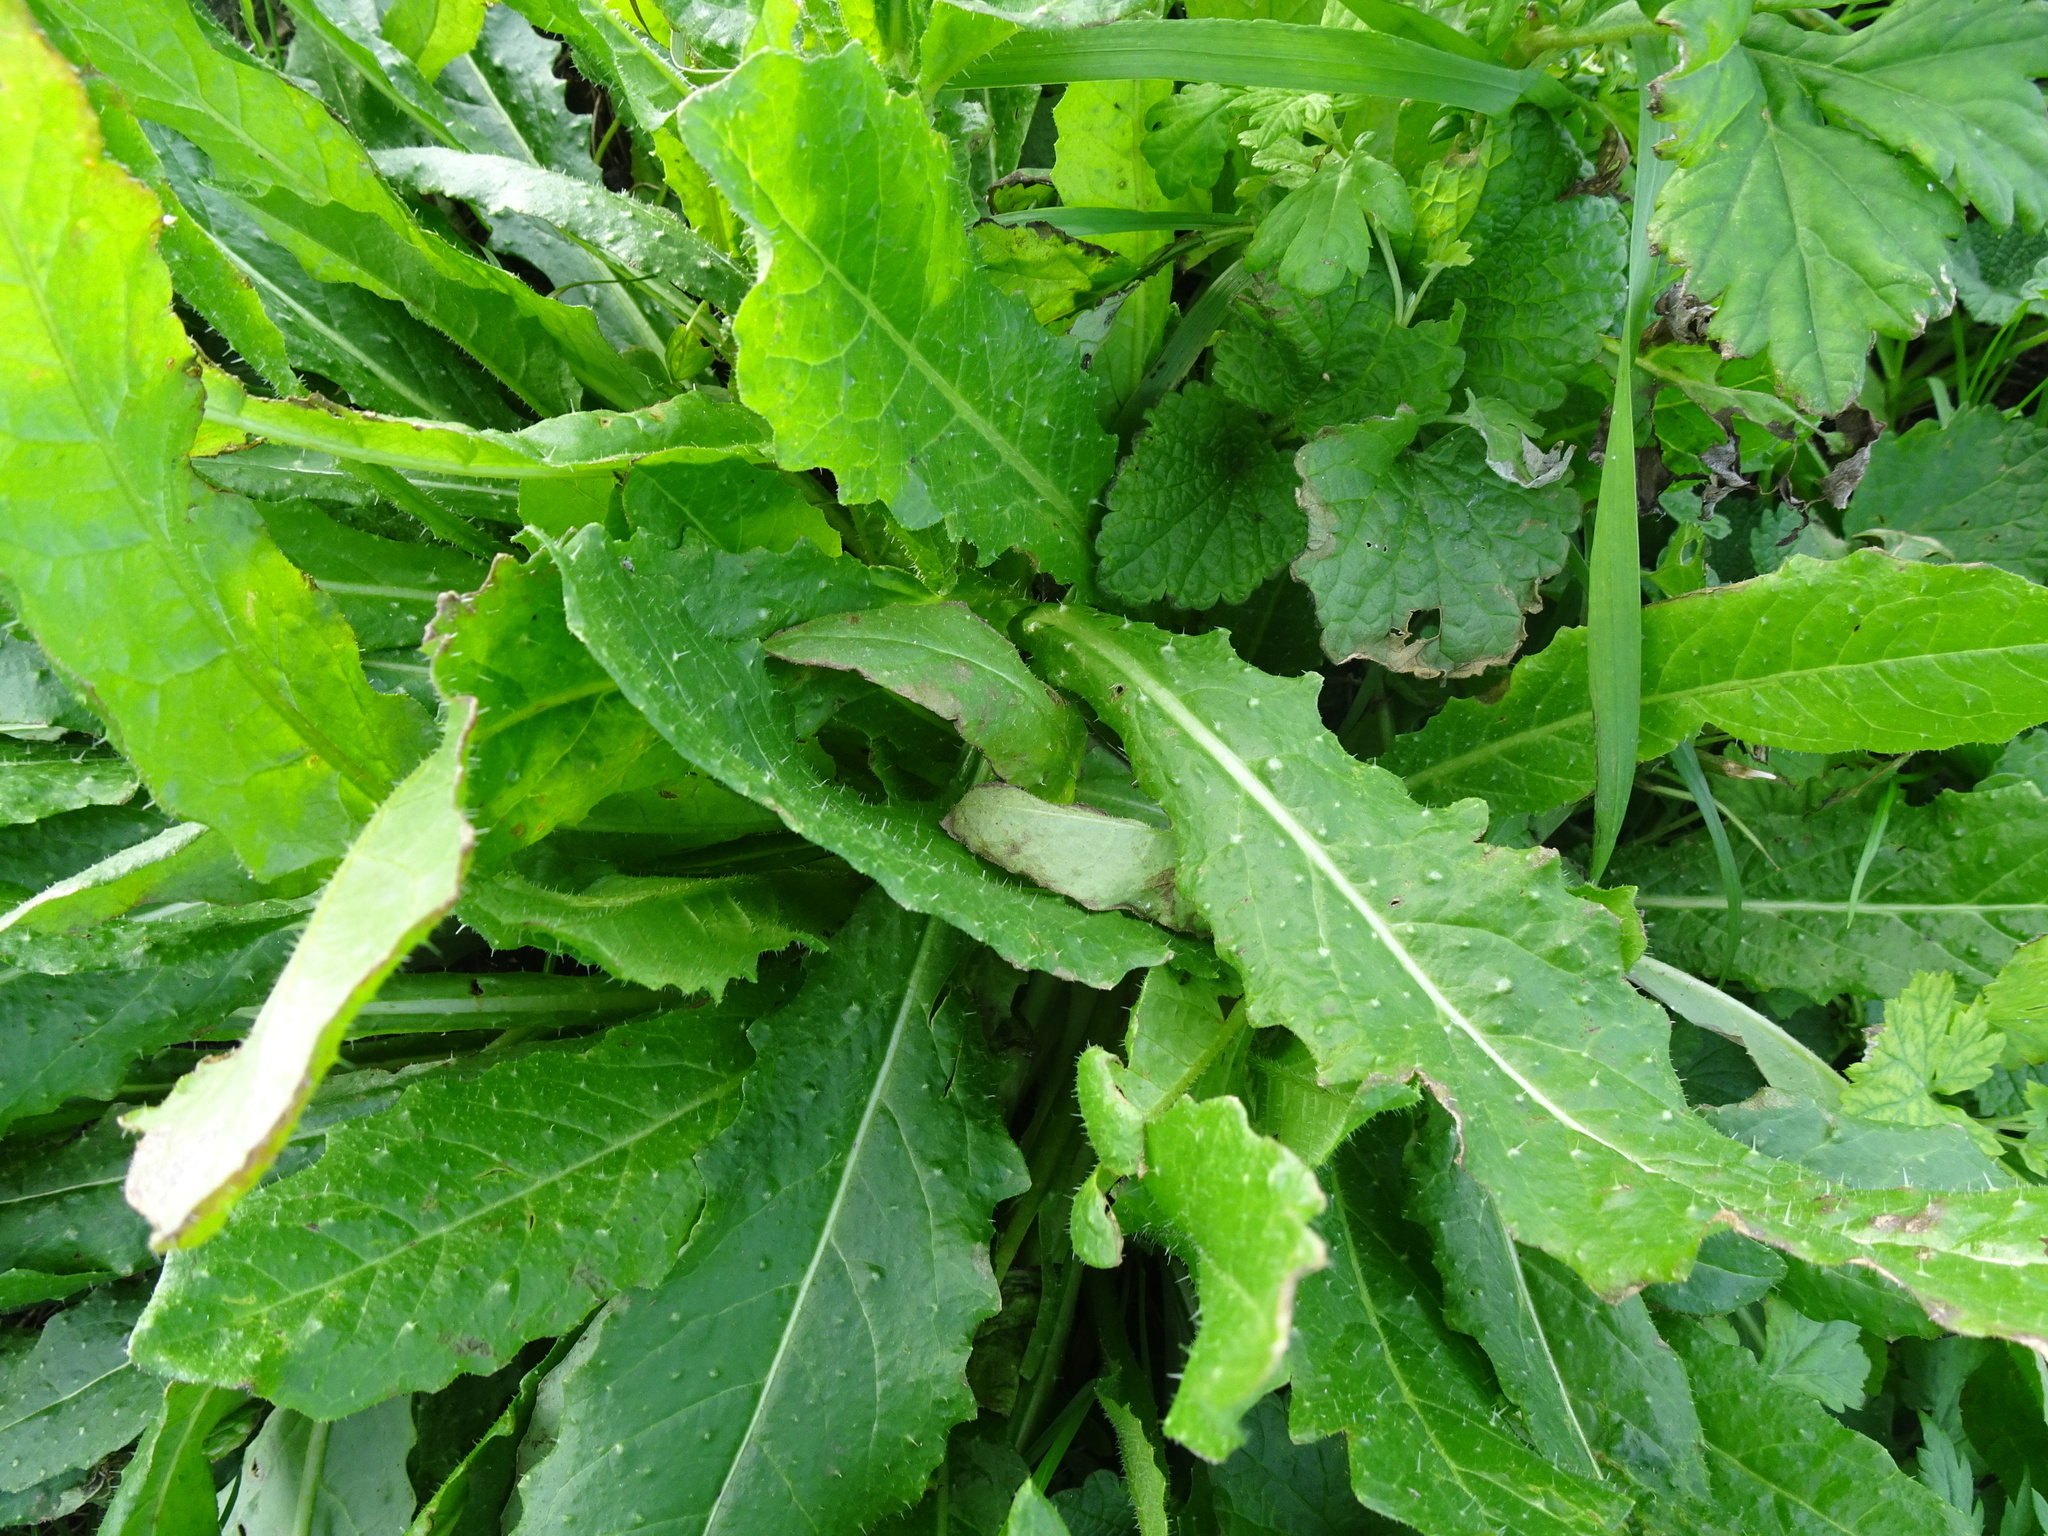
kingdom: Plantae
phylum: Tracheophyta
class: Magnoliopsida
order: Asterales
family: Asteraceae
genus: Helminthotheca
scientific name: Helminthotheca echioides
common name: Ox-tongue
